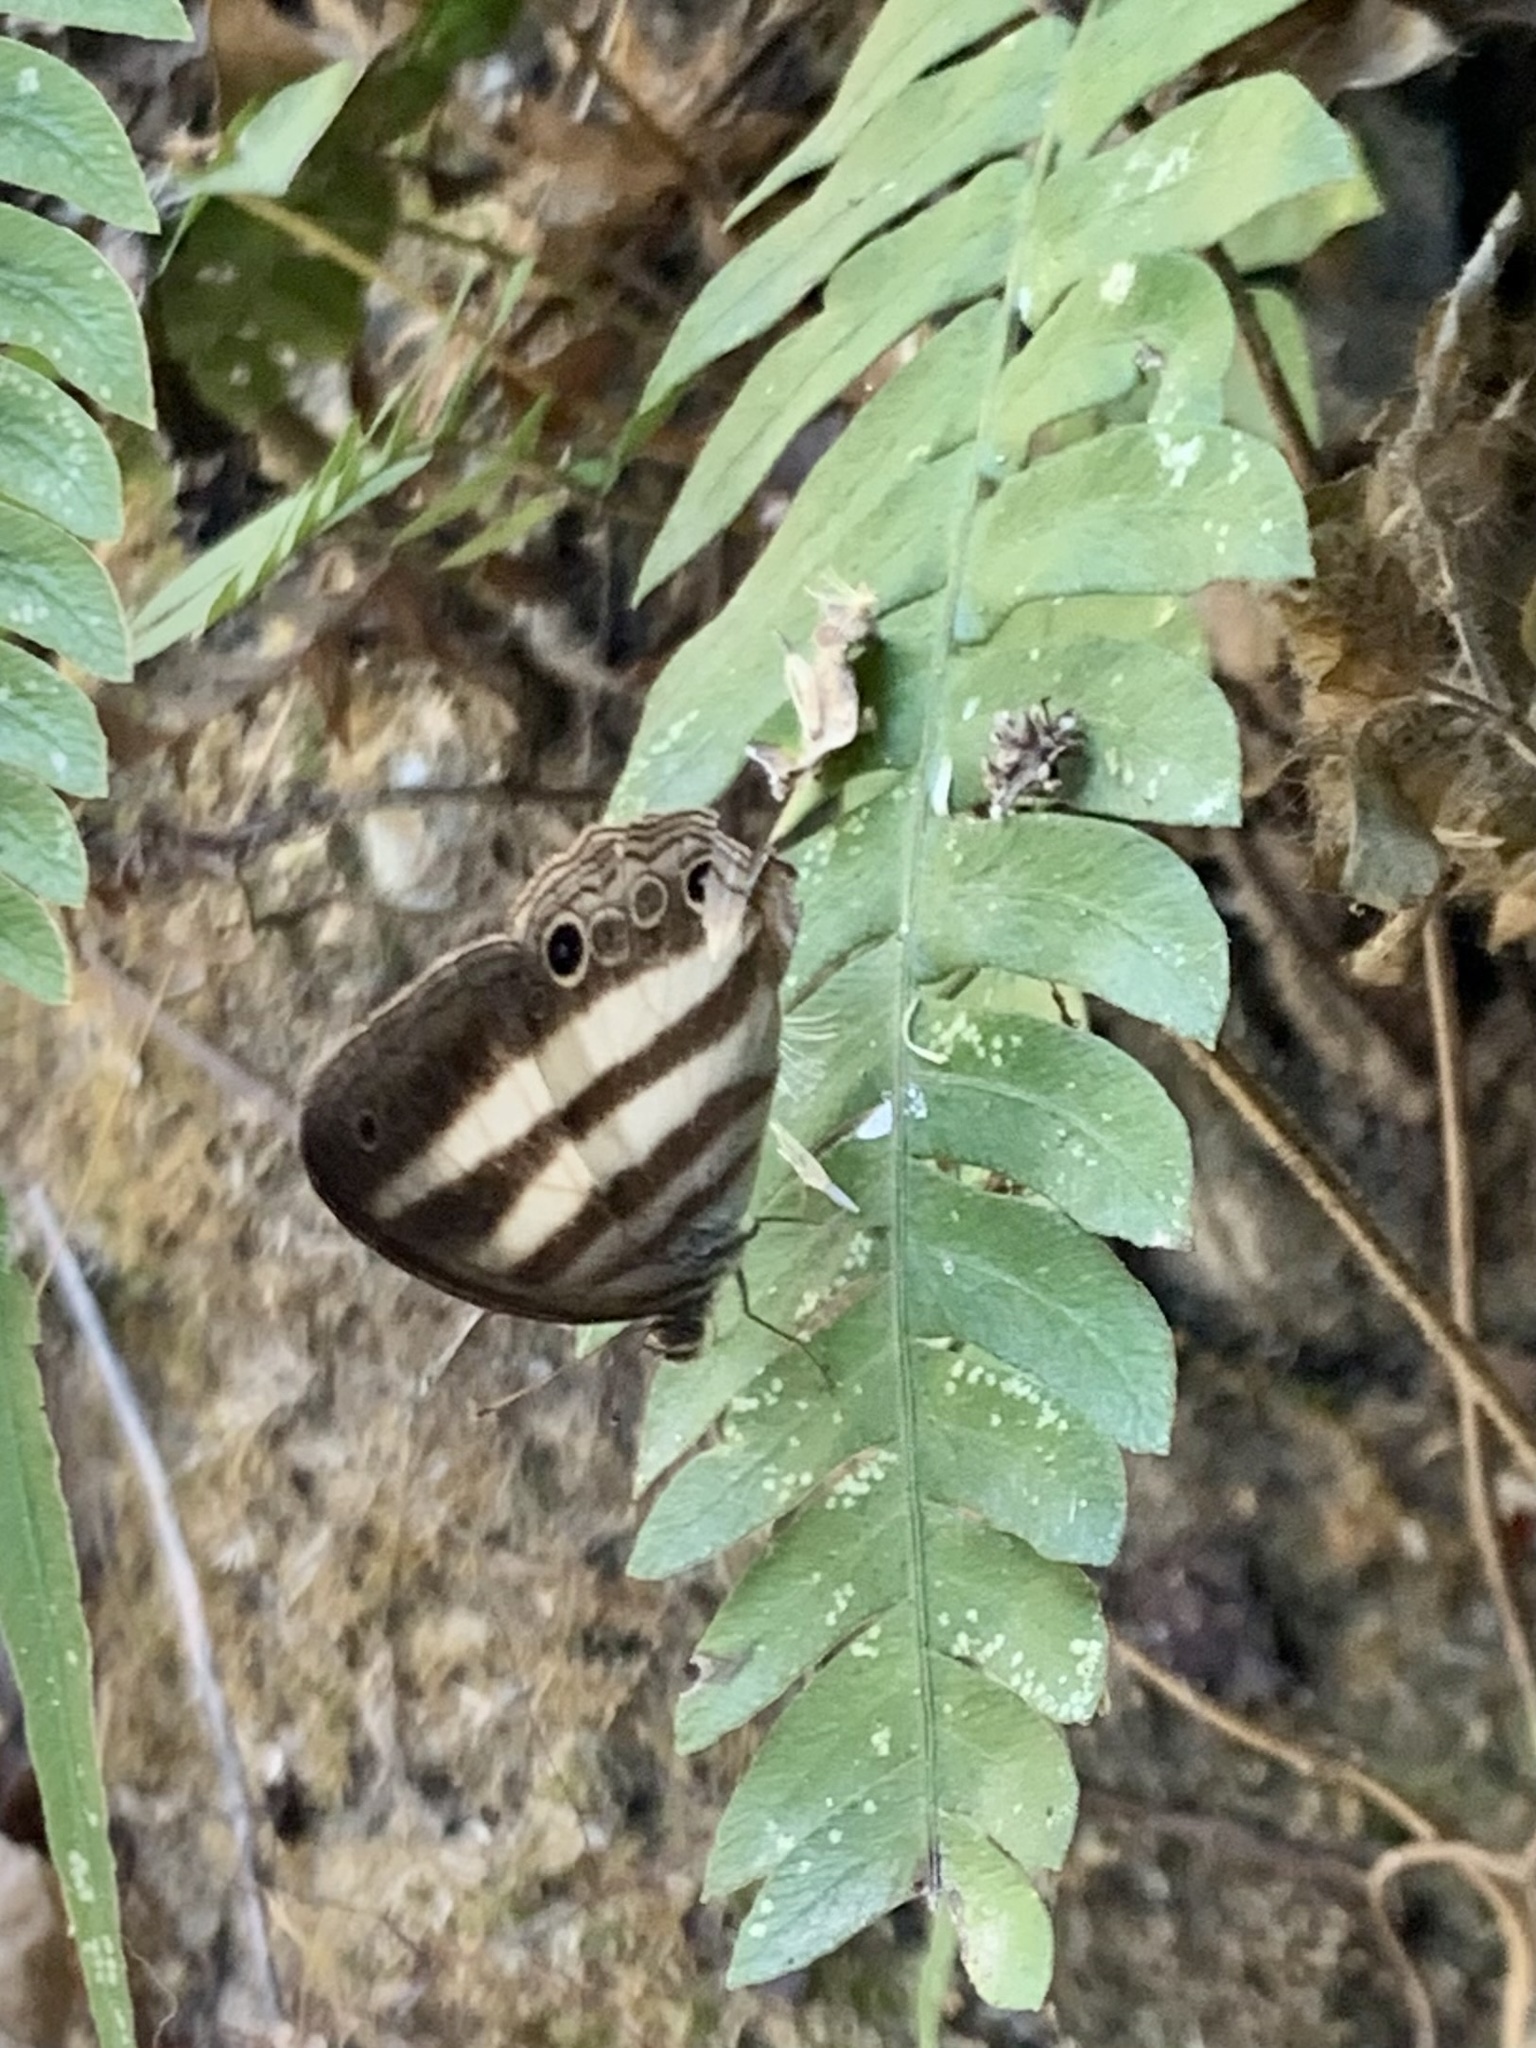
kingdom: Animalia
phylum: Arthropoda
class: Insecta
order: Lepidoptera
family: Nymphalidae
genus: Pareuptychia
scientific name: Pareuptychia hesione
